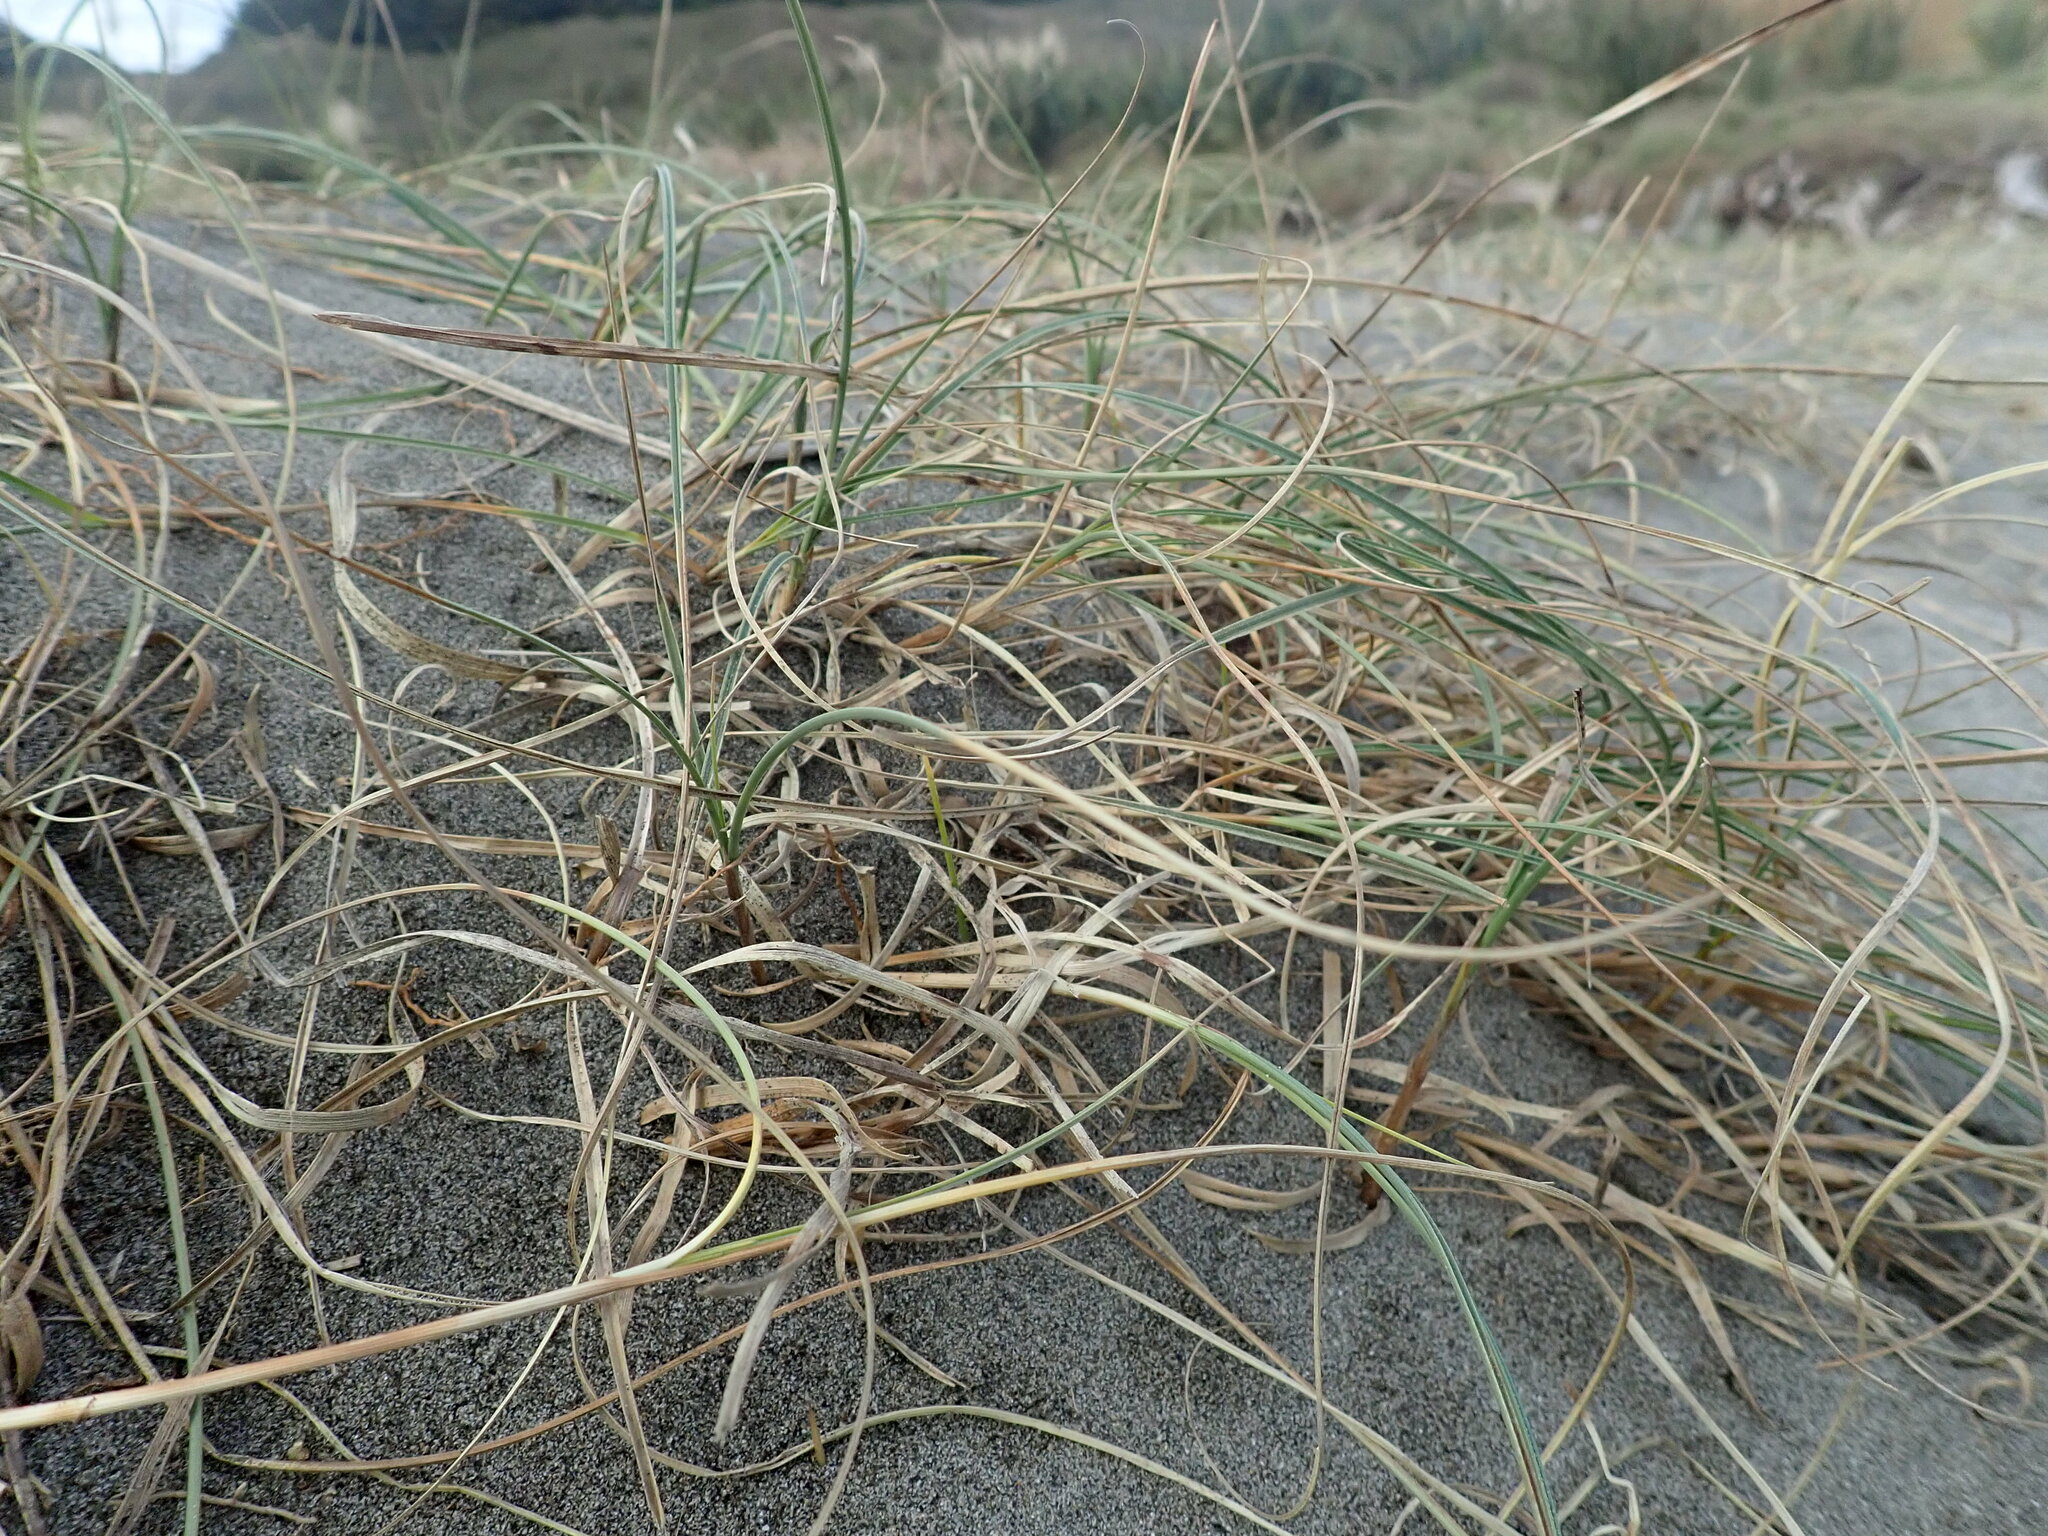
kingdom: Plantae
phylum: Tracheophyta
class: Liliopsida
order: Poales
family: Cyperaceae
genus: Carex
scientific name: Carex pumila
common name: Dwarf sedge
